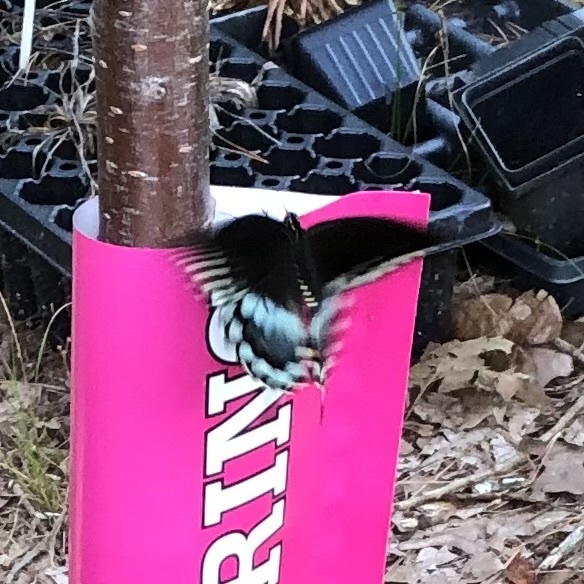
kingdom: Animalia
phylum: Arthropoda
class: Insecta
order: Lepidoptera
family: Papilionidae
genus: Papilio
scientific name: Papilio troilus
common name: Spicebush swallowtail
